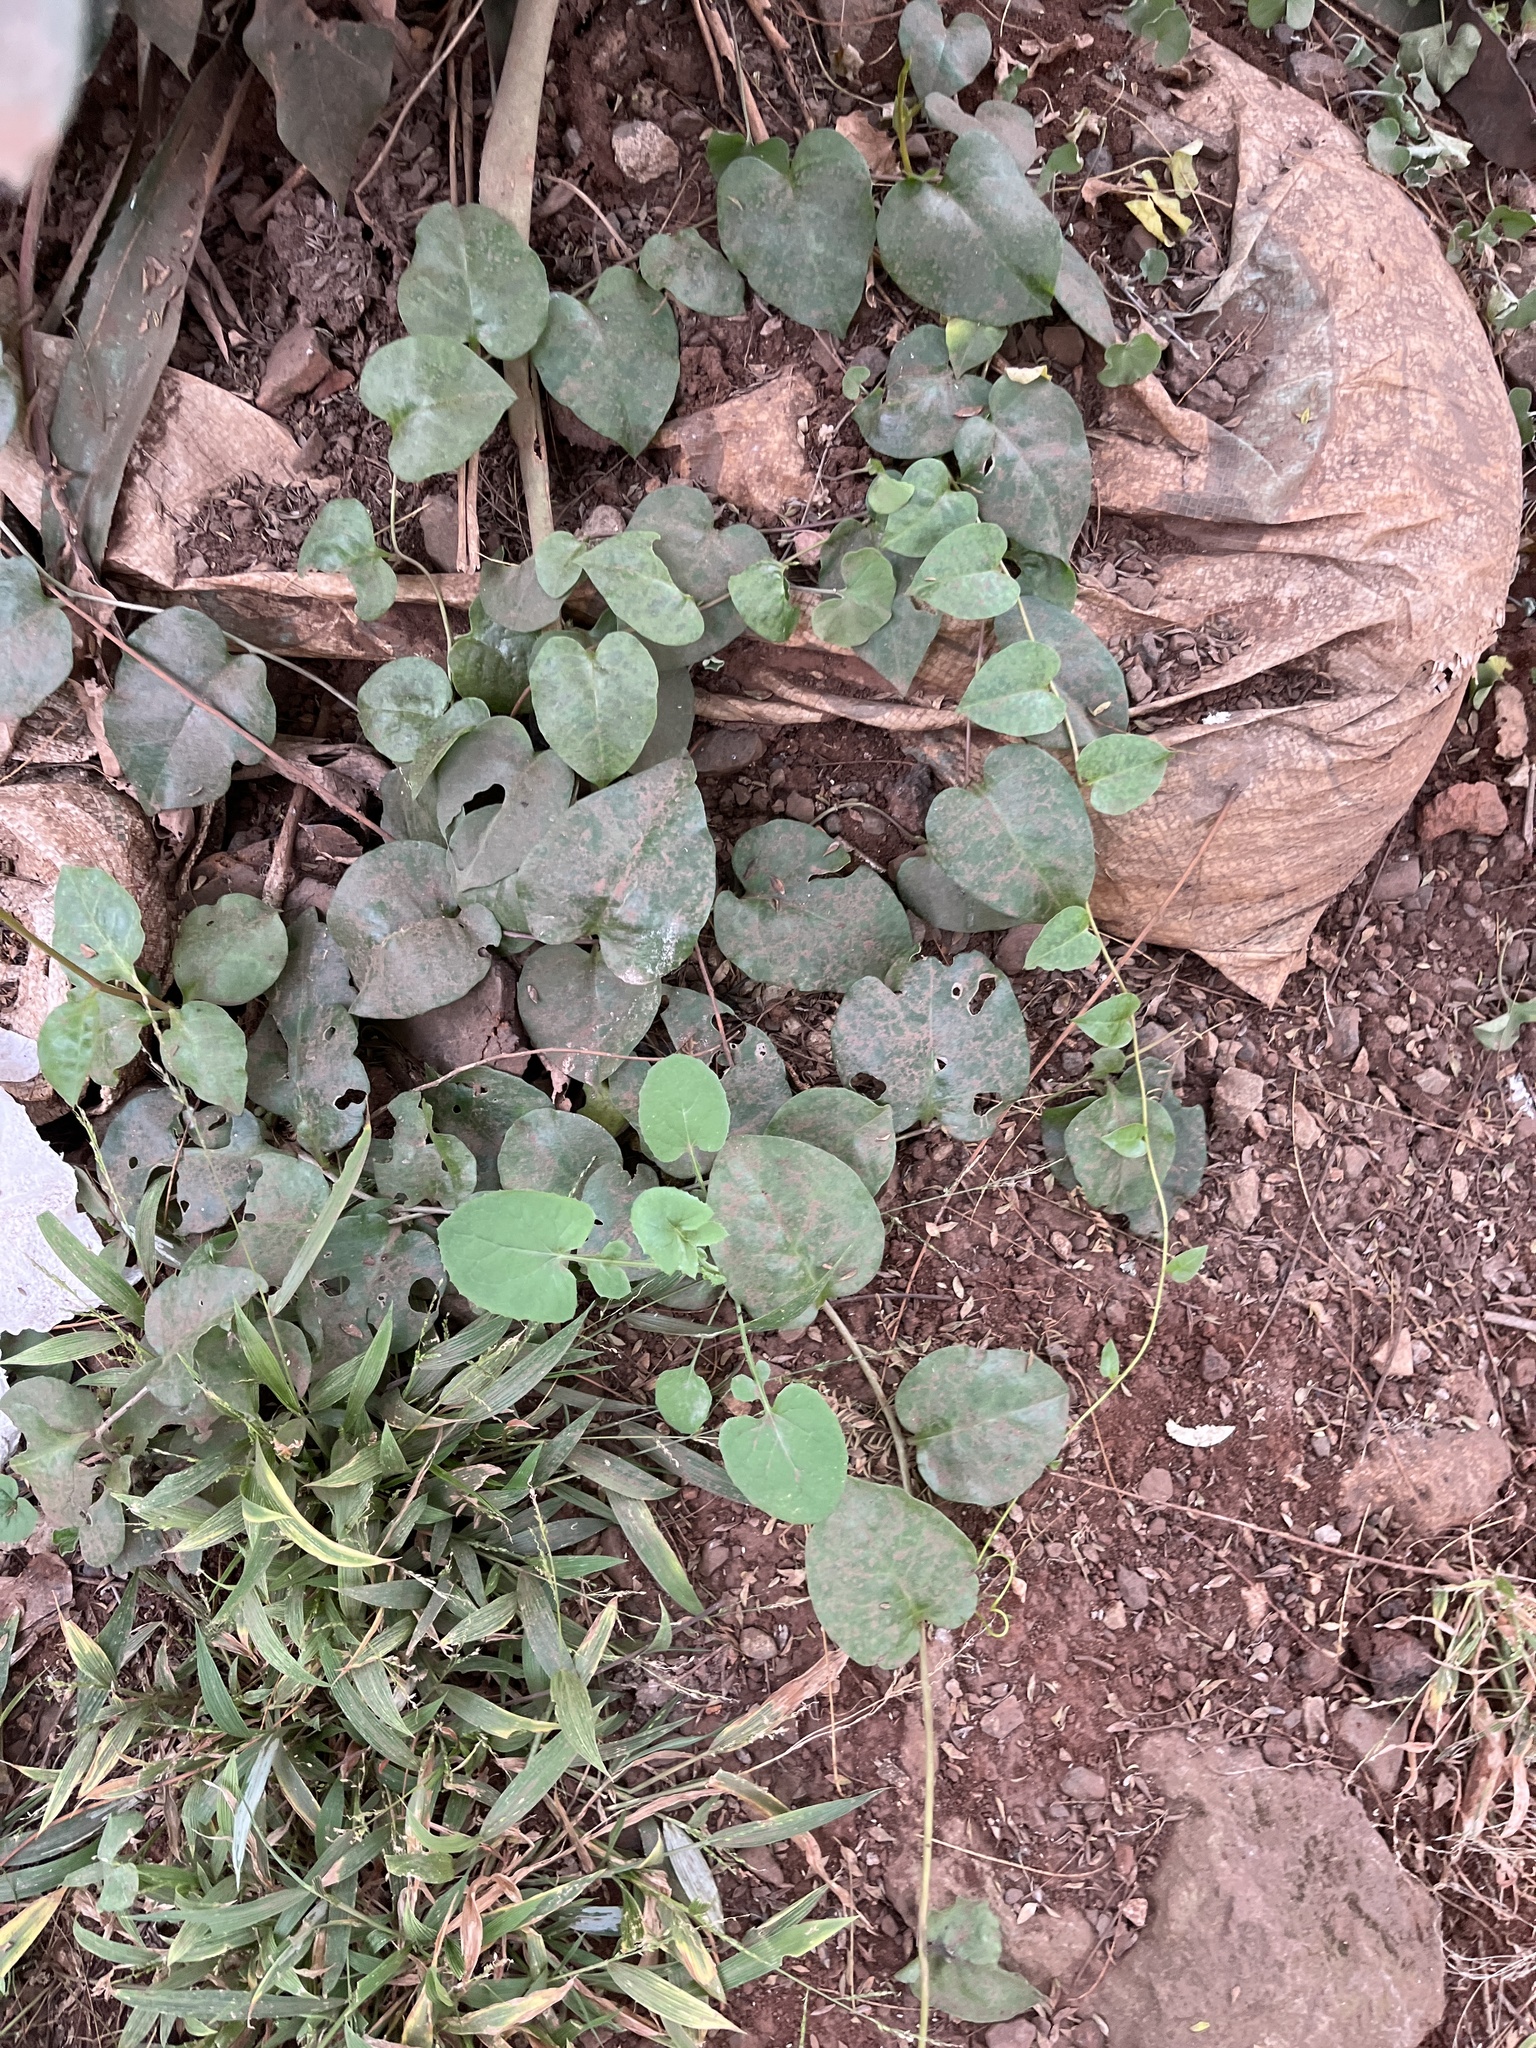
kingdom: Plantae
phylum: Tracheophyta
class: Magnoliopsida
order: Caryophyllales
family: Basellaceae
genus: Anredera
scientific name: Anredera cordifolia
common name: Heartleaf madeiravine
